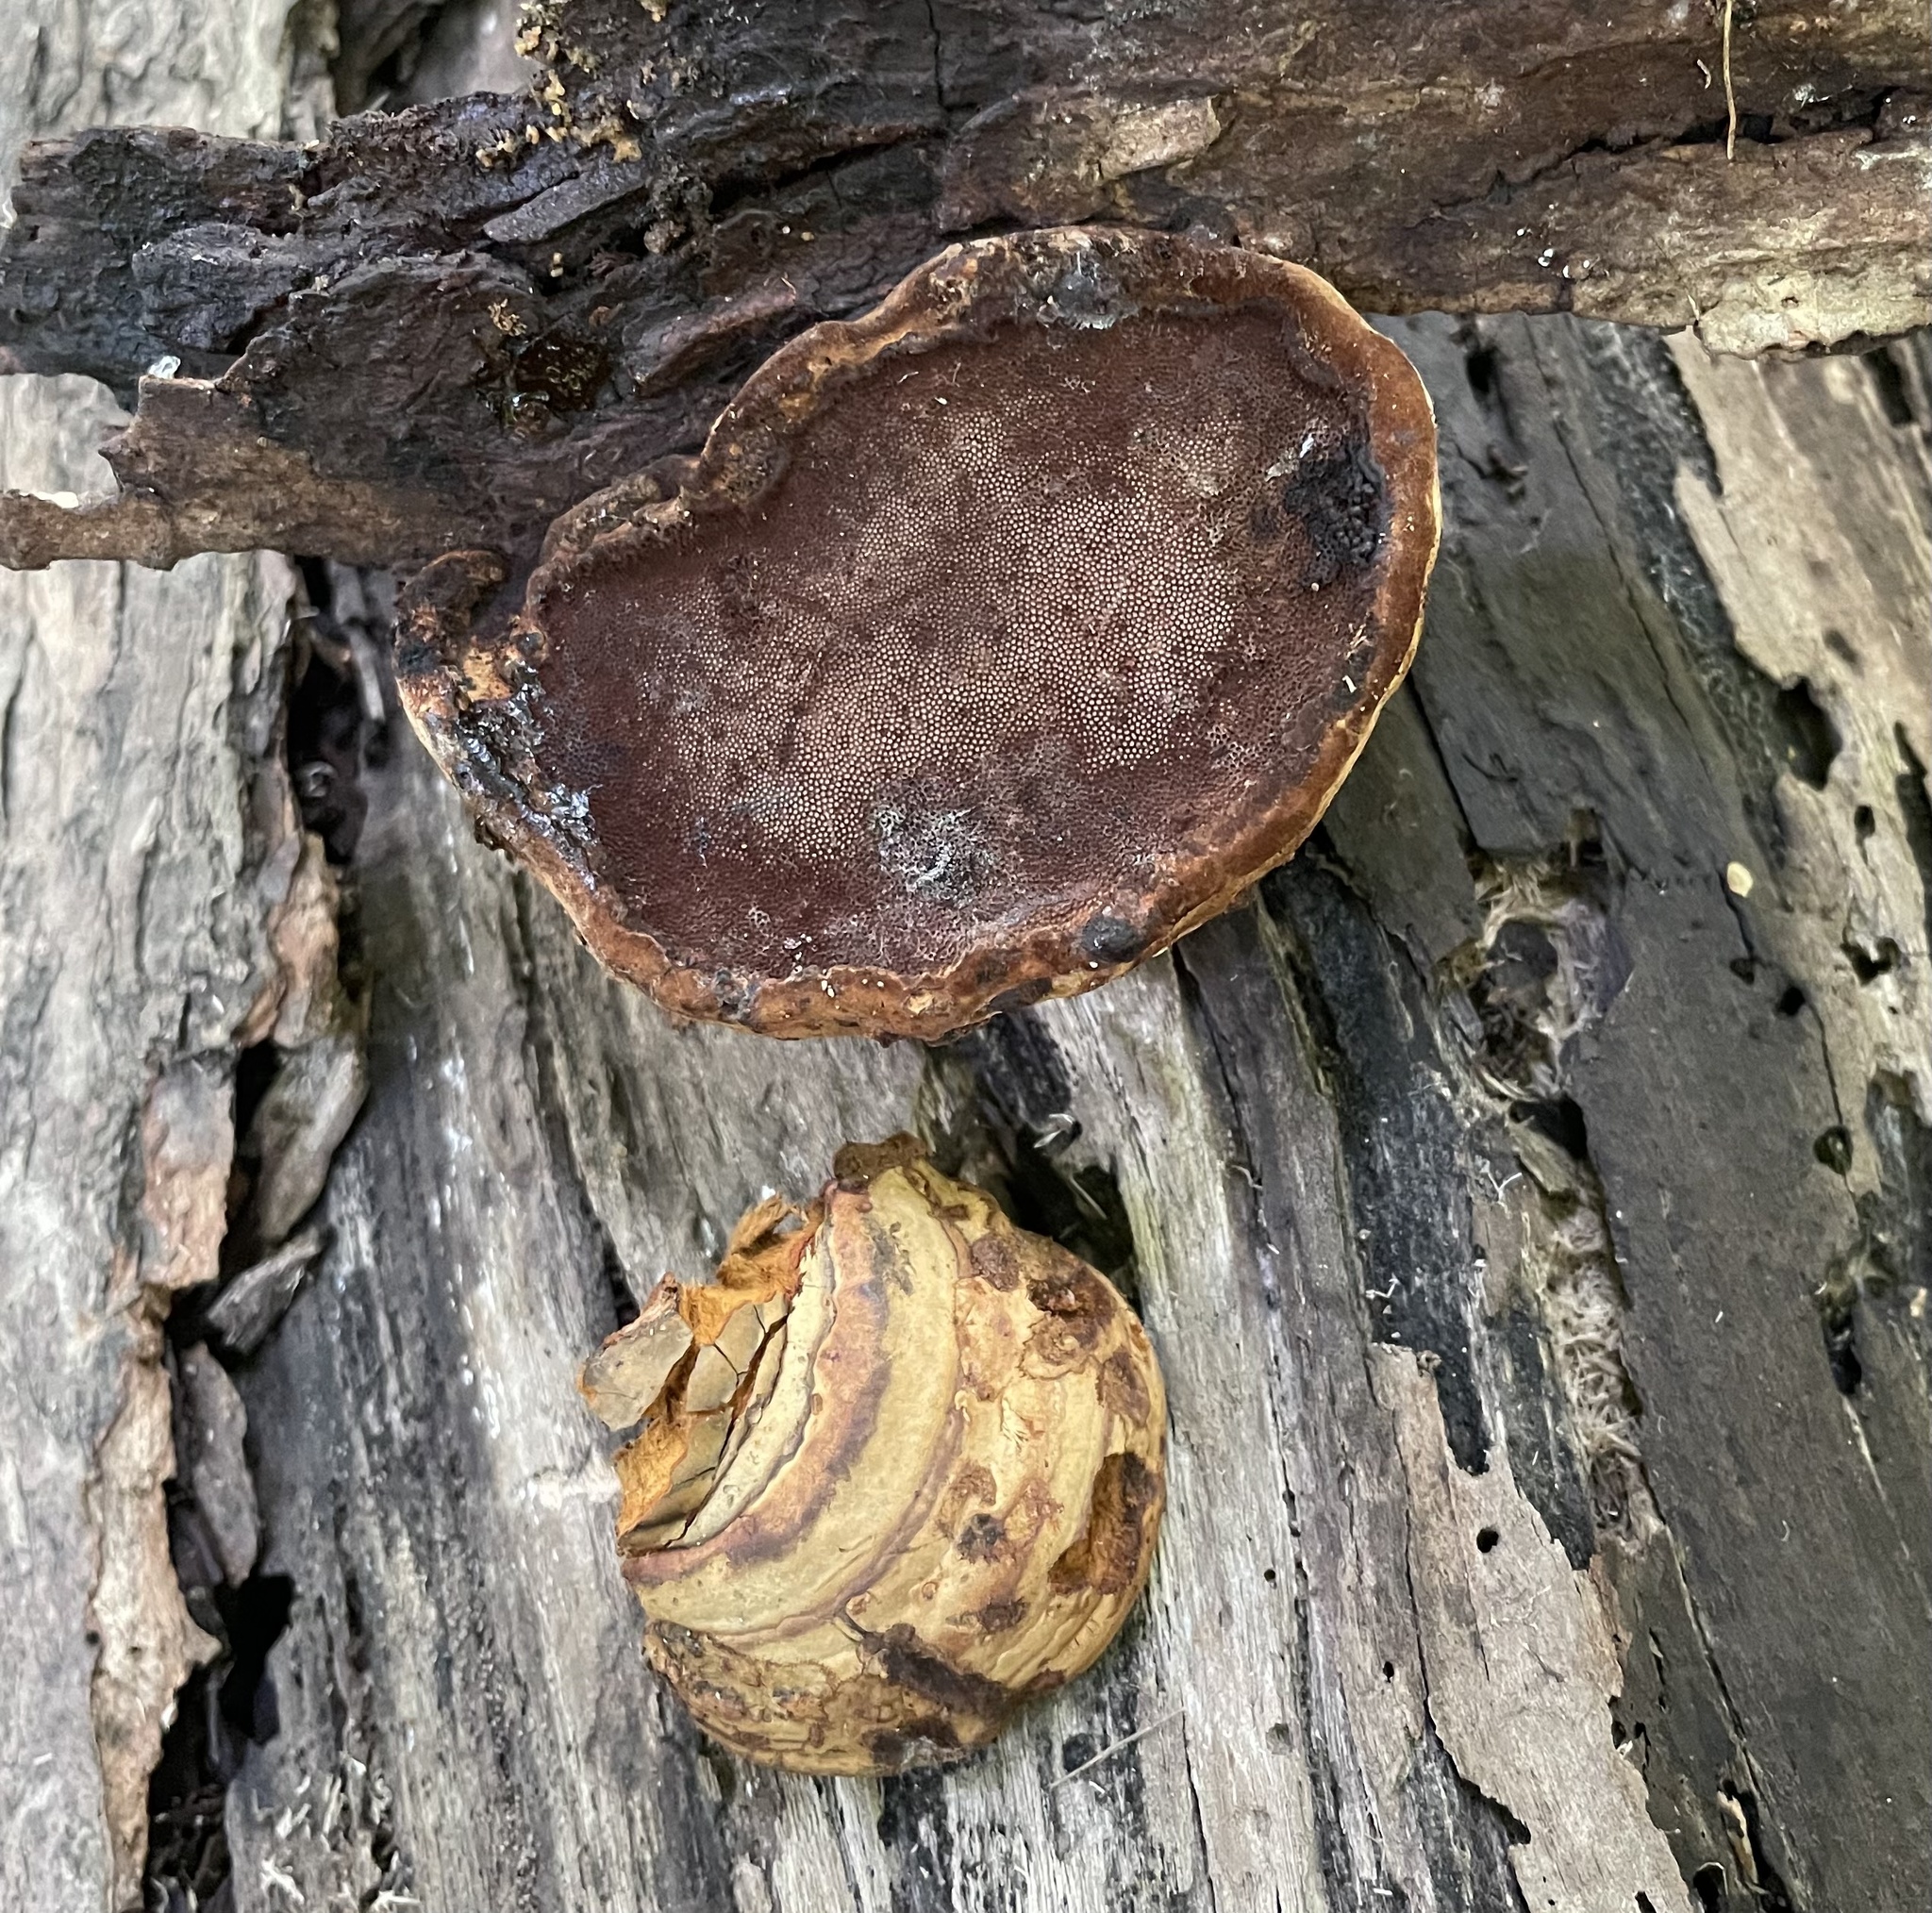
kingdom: Fungi
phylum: Basidiomycota
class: Agaricomycetes
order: Polyporales
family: Polyporaceae
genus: Fomes
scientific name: Fomes fomentarius
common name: Hoof fungus
